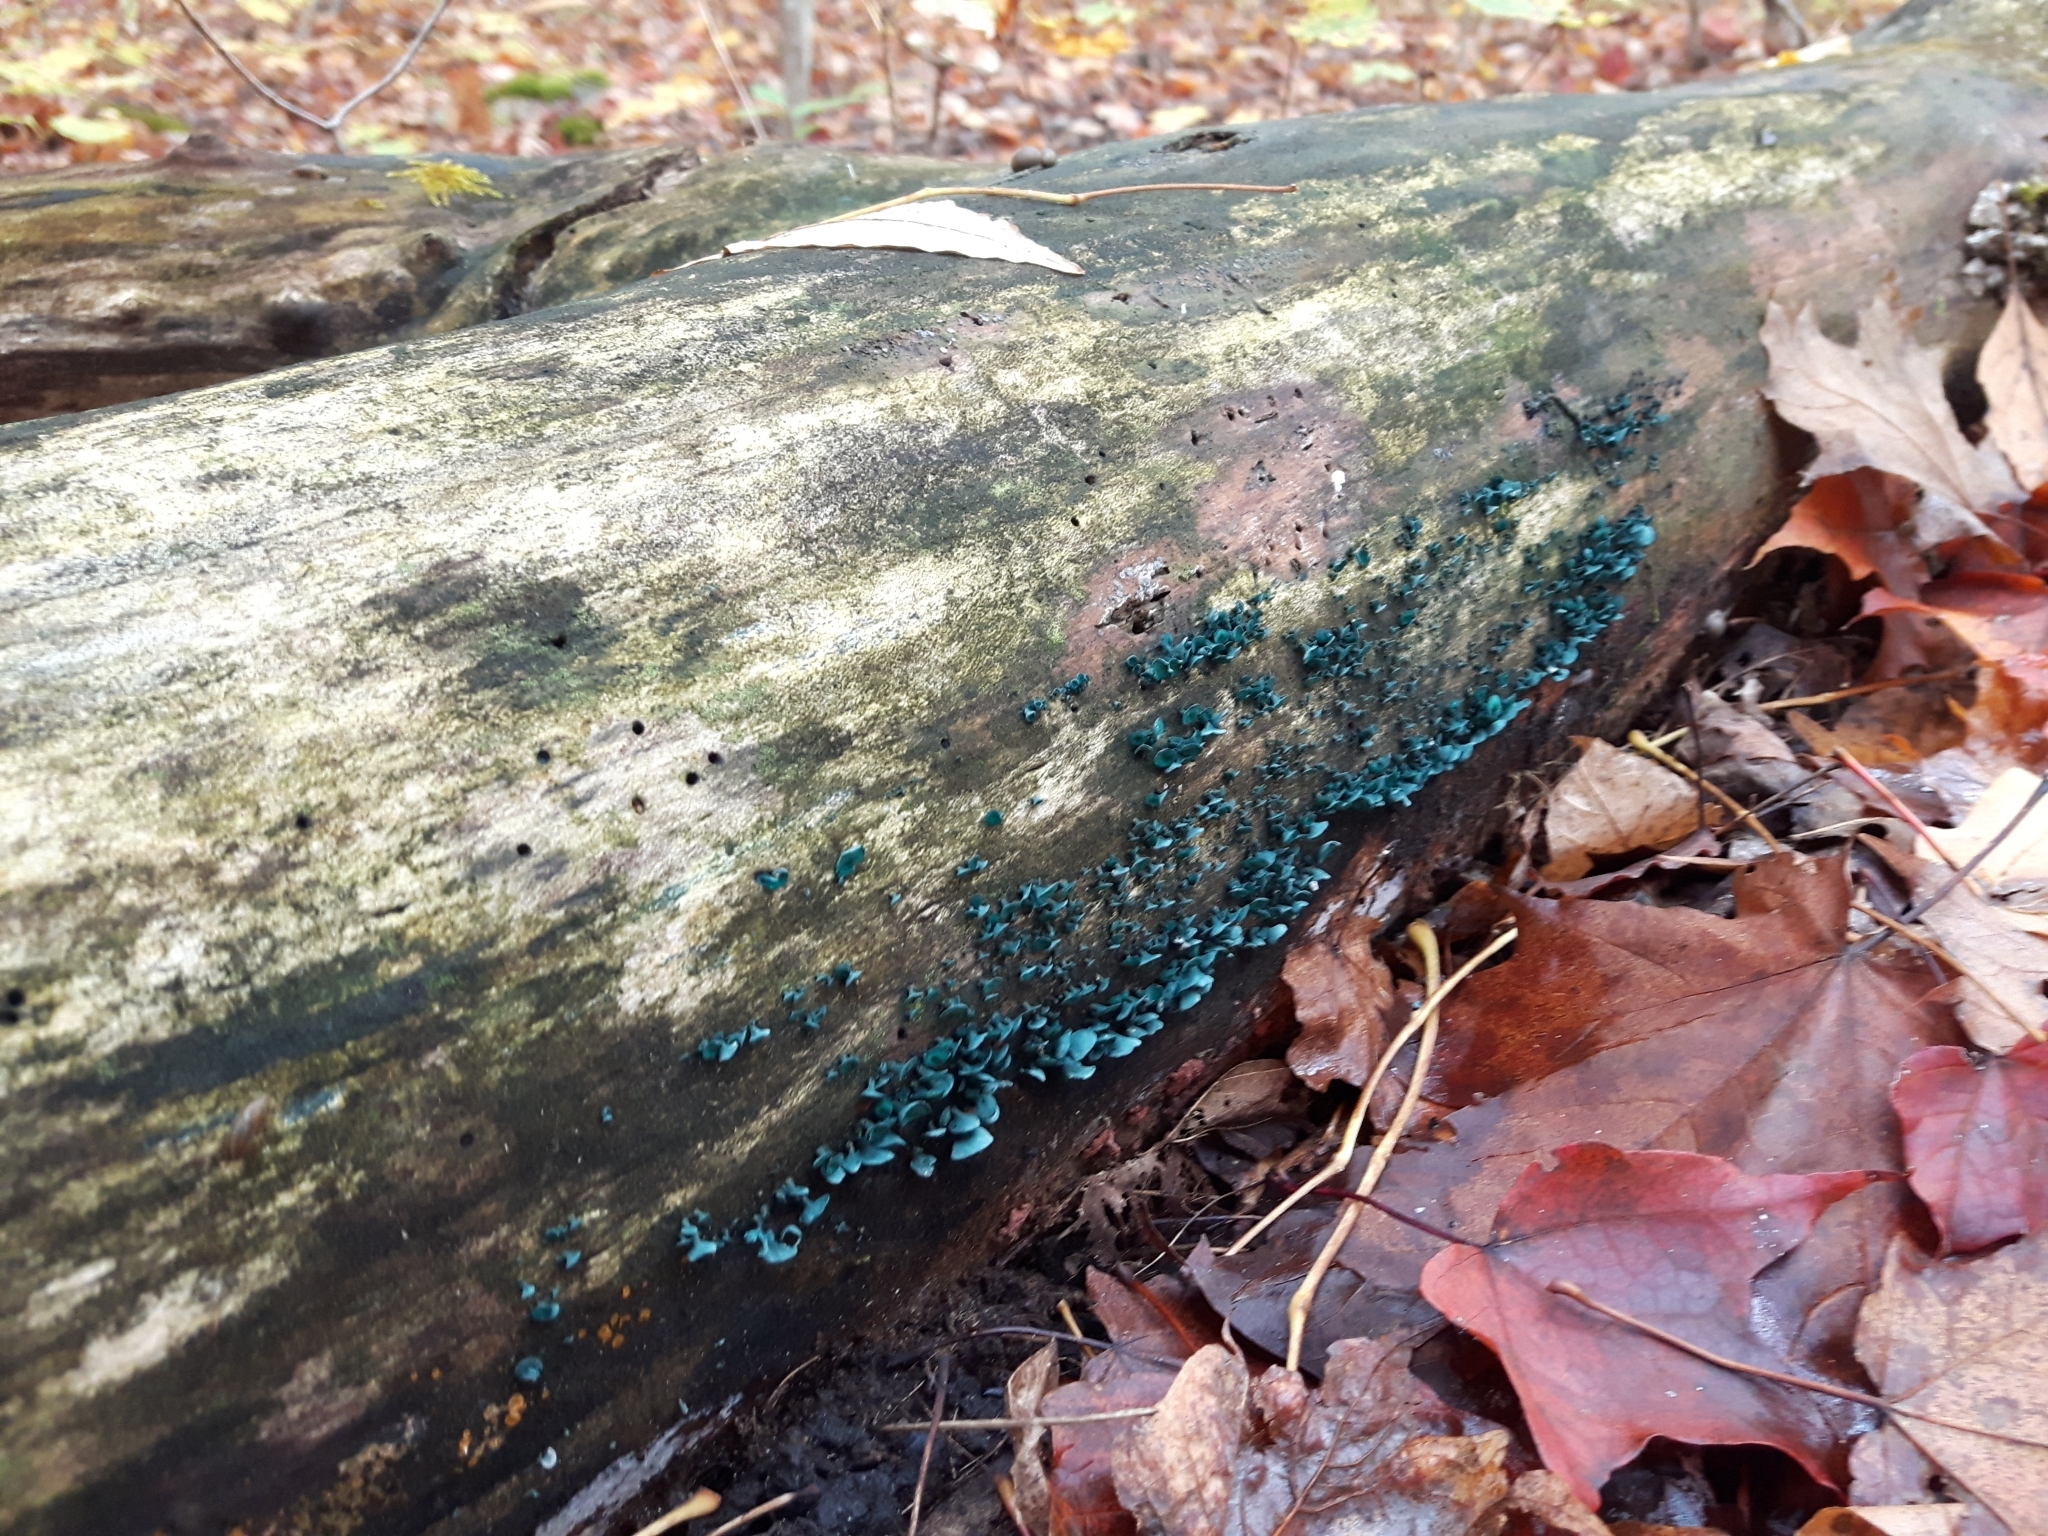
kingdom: Fungi
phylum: Ascomycota
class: Leotiomycetes
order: Helotiales
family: Chlorociboriaceae
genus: Chlorociboria
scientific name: Chlorociboria aeruginascens
